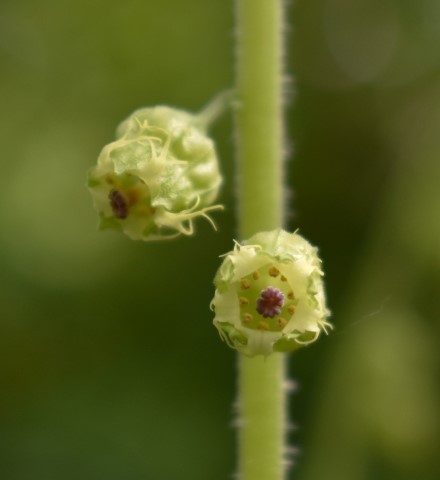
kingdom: Plantae
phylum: Tracheophyta
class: Magnoliopsida
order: Saxifragales
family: Saxifragaceae
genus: Tellima
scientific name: Tellima grandiflora
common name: Fringecups
